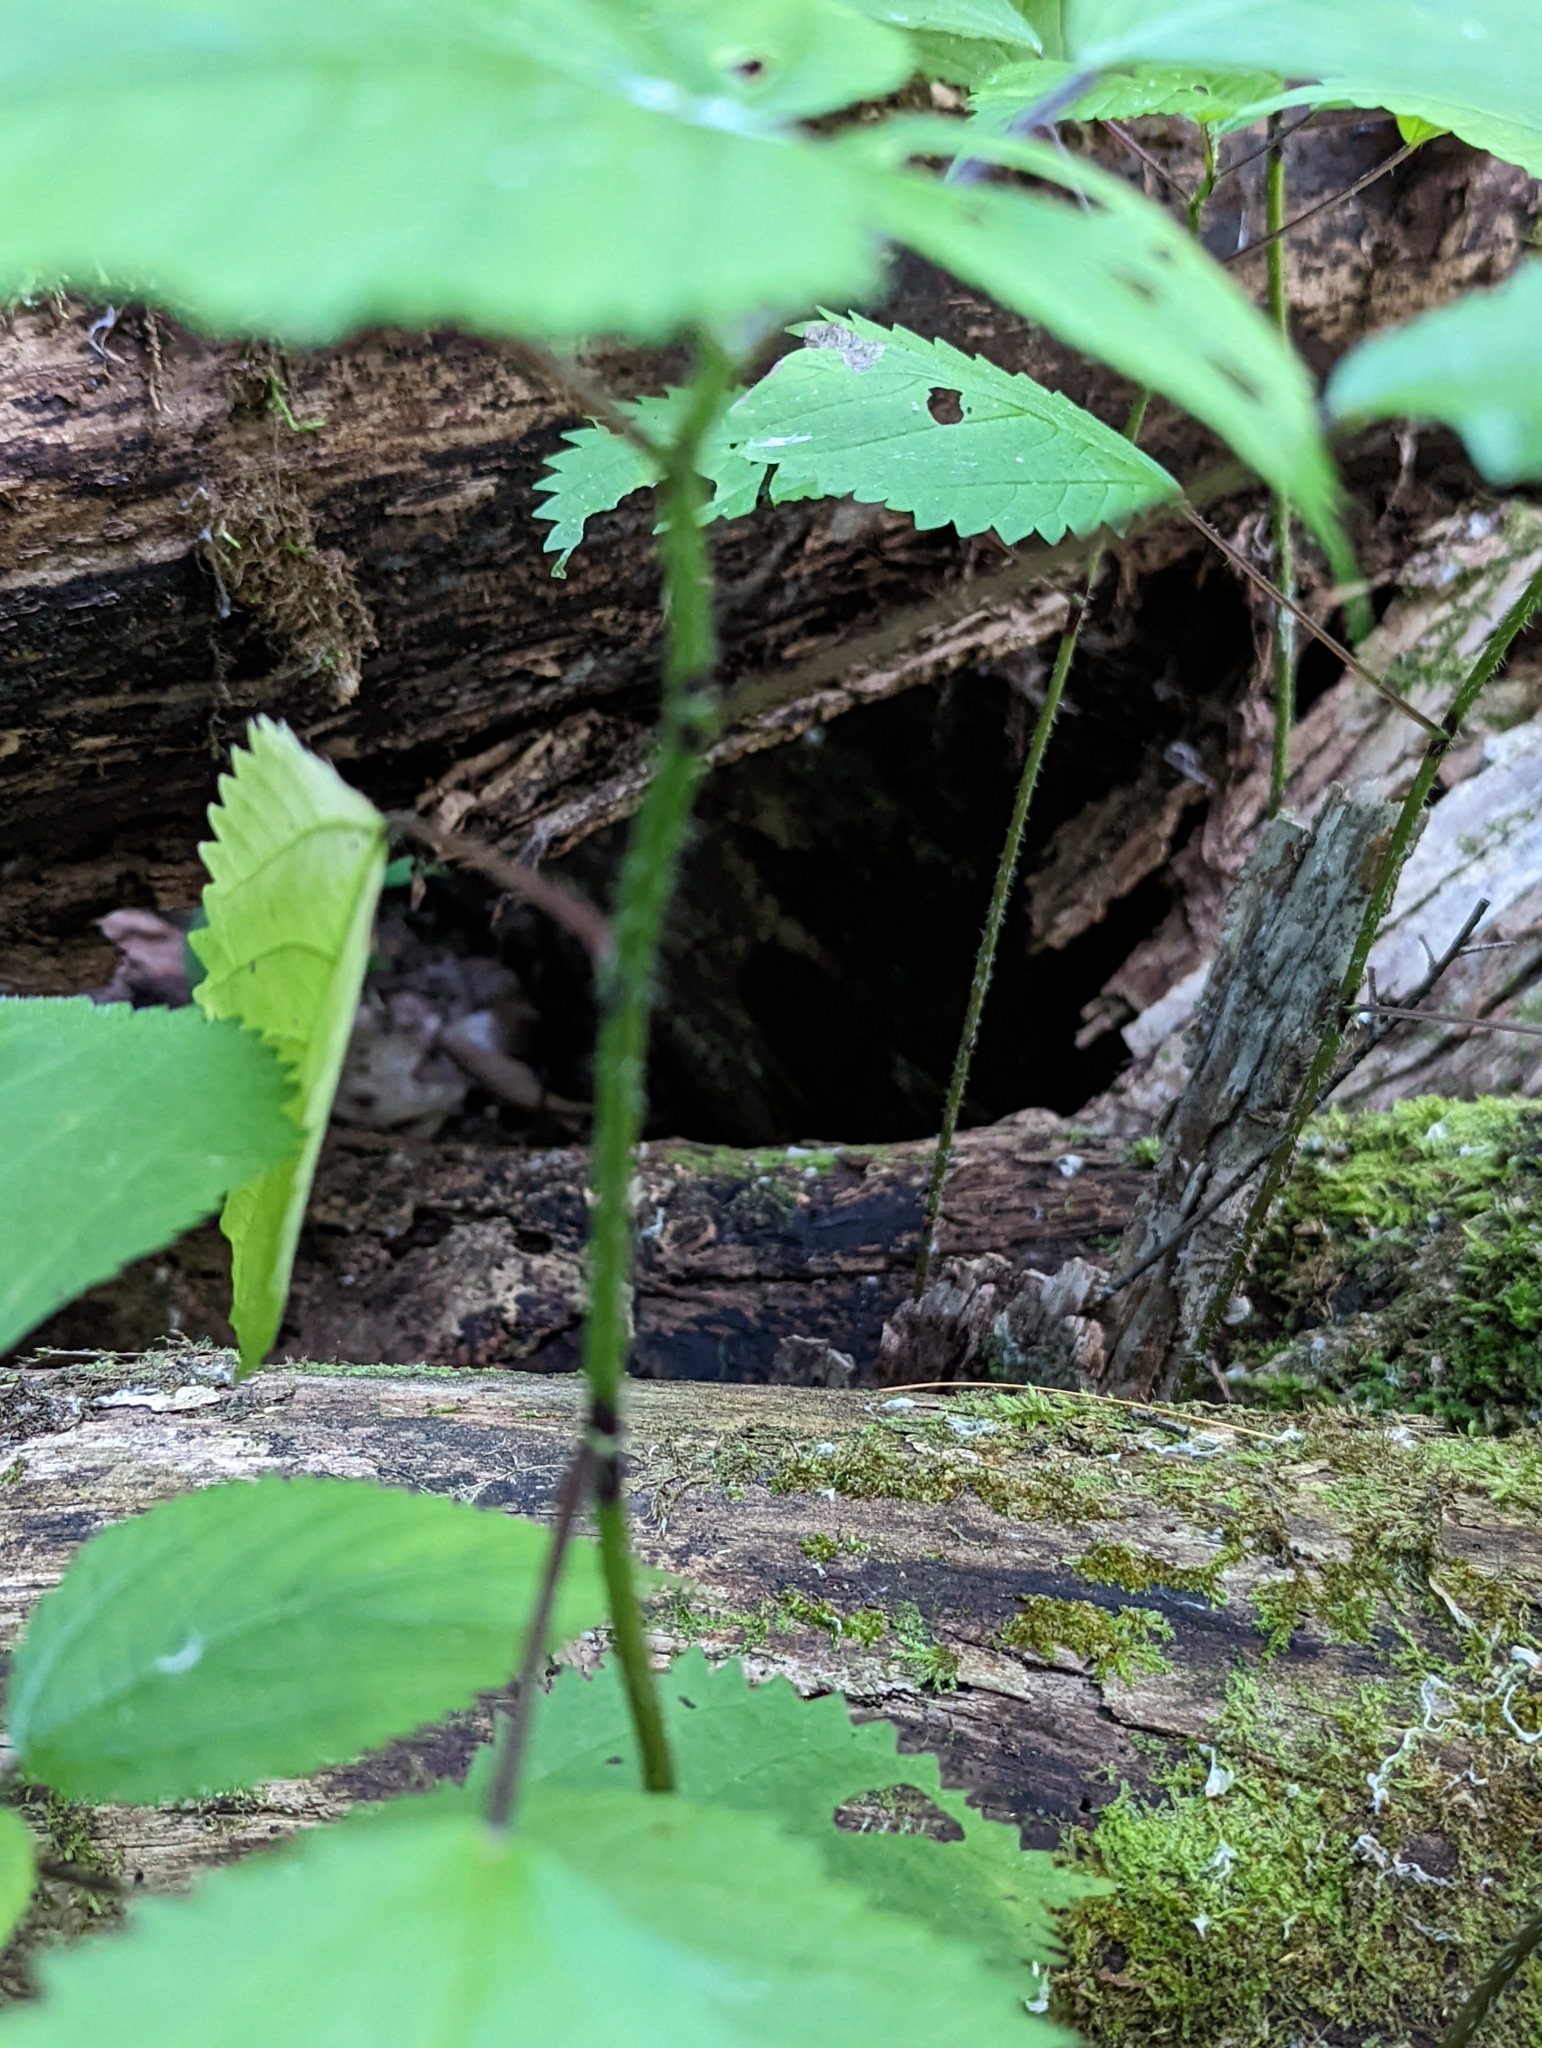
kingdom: Plantae
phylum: Tracheophyta
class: Magnoliopsida
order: Rosales
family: Urticaceae
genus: Laportea
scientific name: Laportea canadensis
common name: Canada nettle
